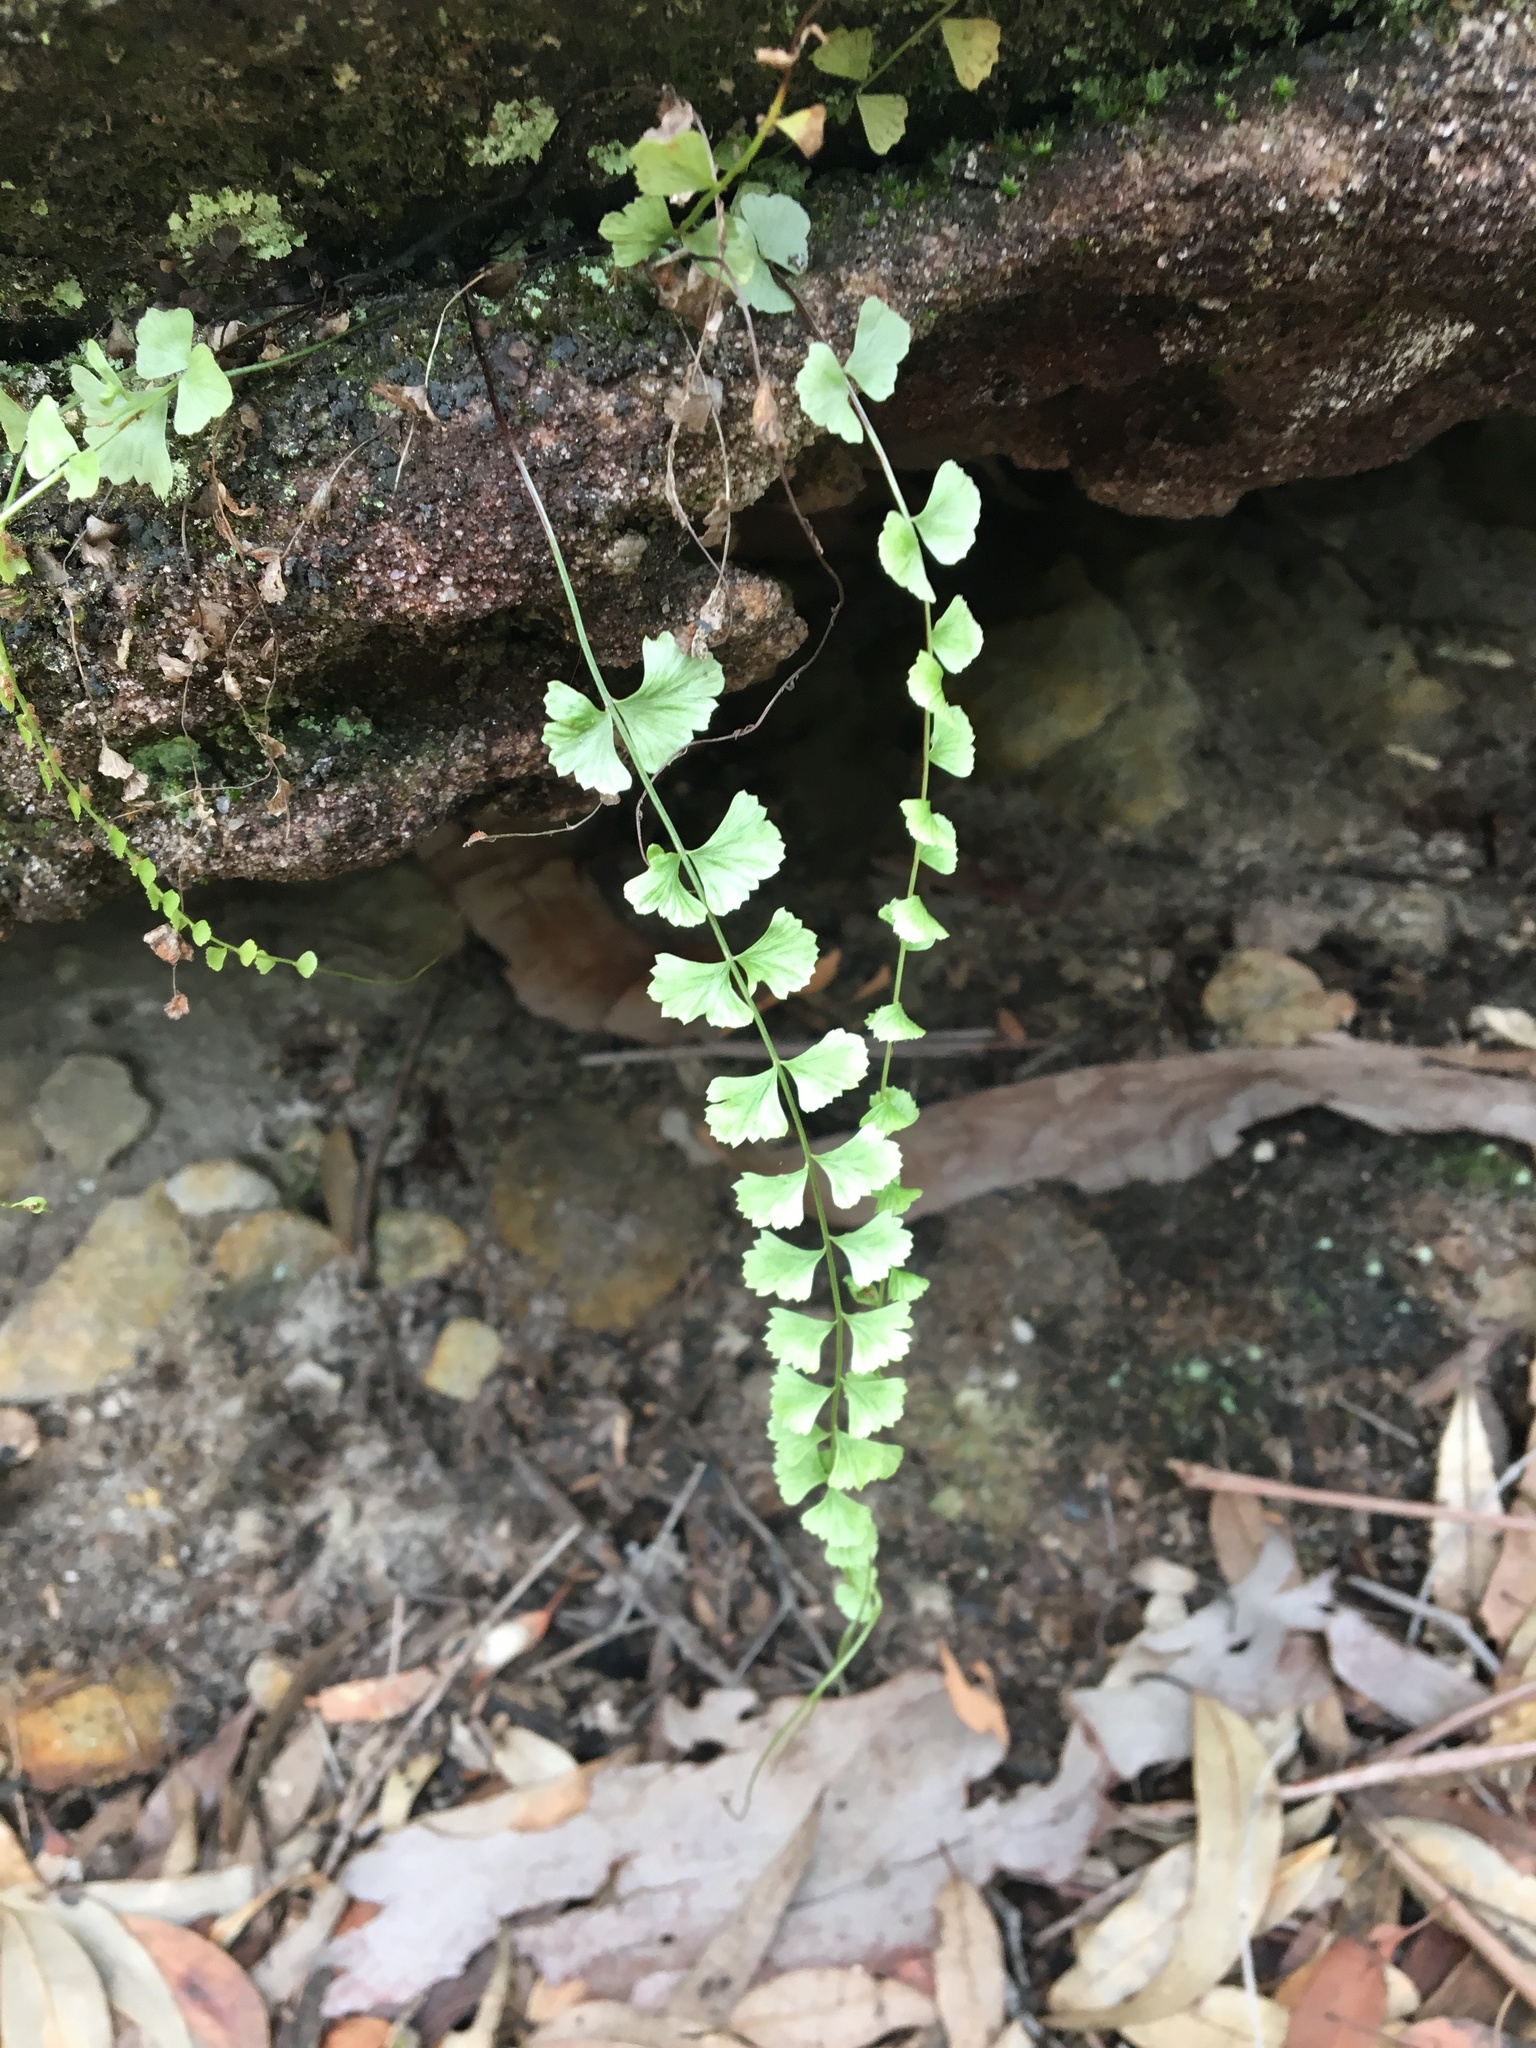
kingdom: Plantae
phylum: Tracheophyta
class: Polypodiopsida
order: Polypodiales
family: Aspleniaceae
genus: Asplenium
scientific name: Asplenium flabellifolium
